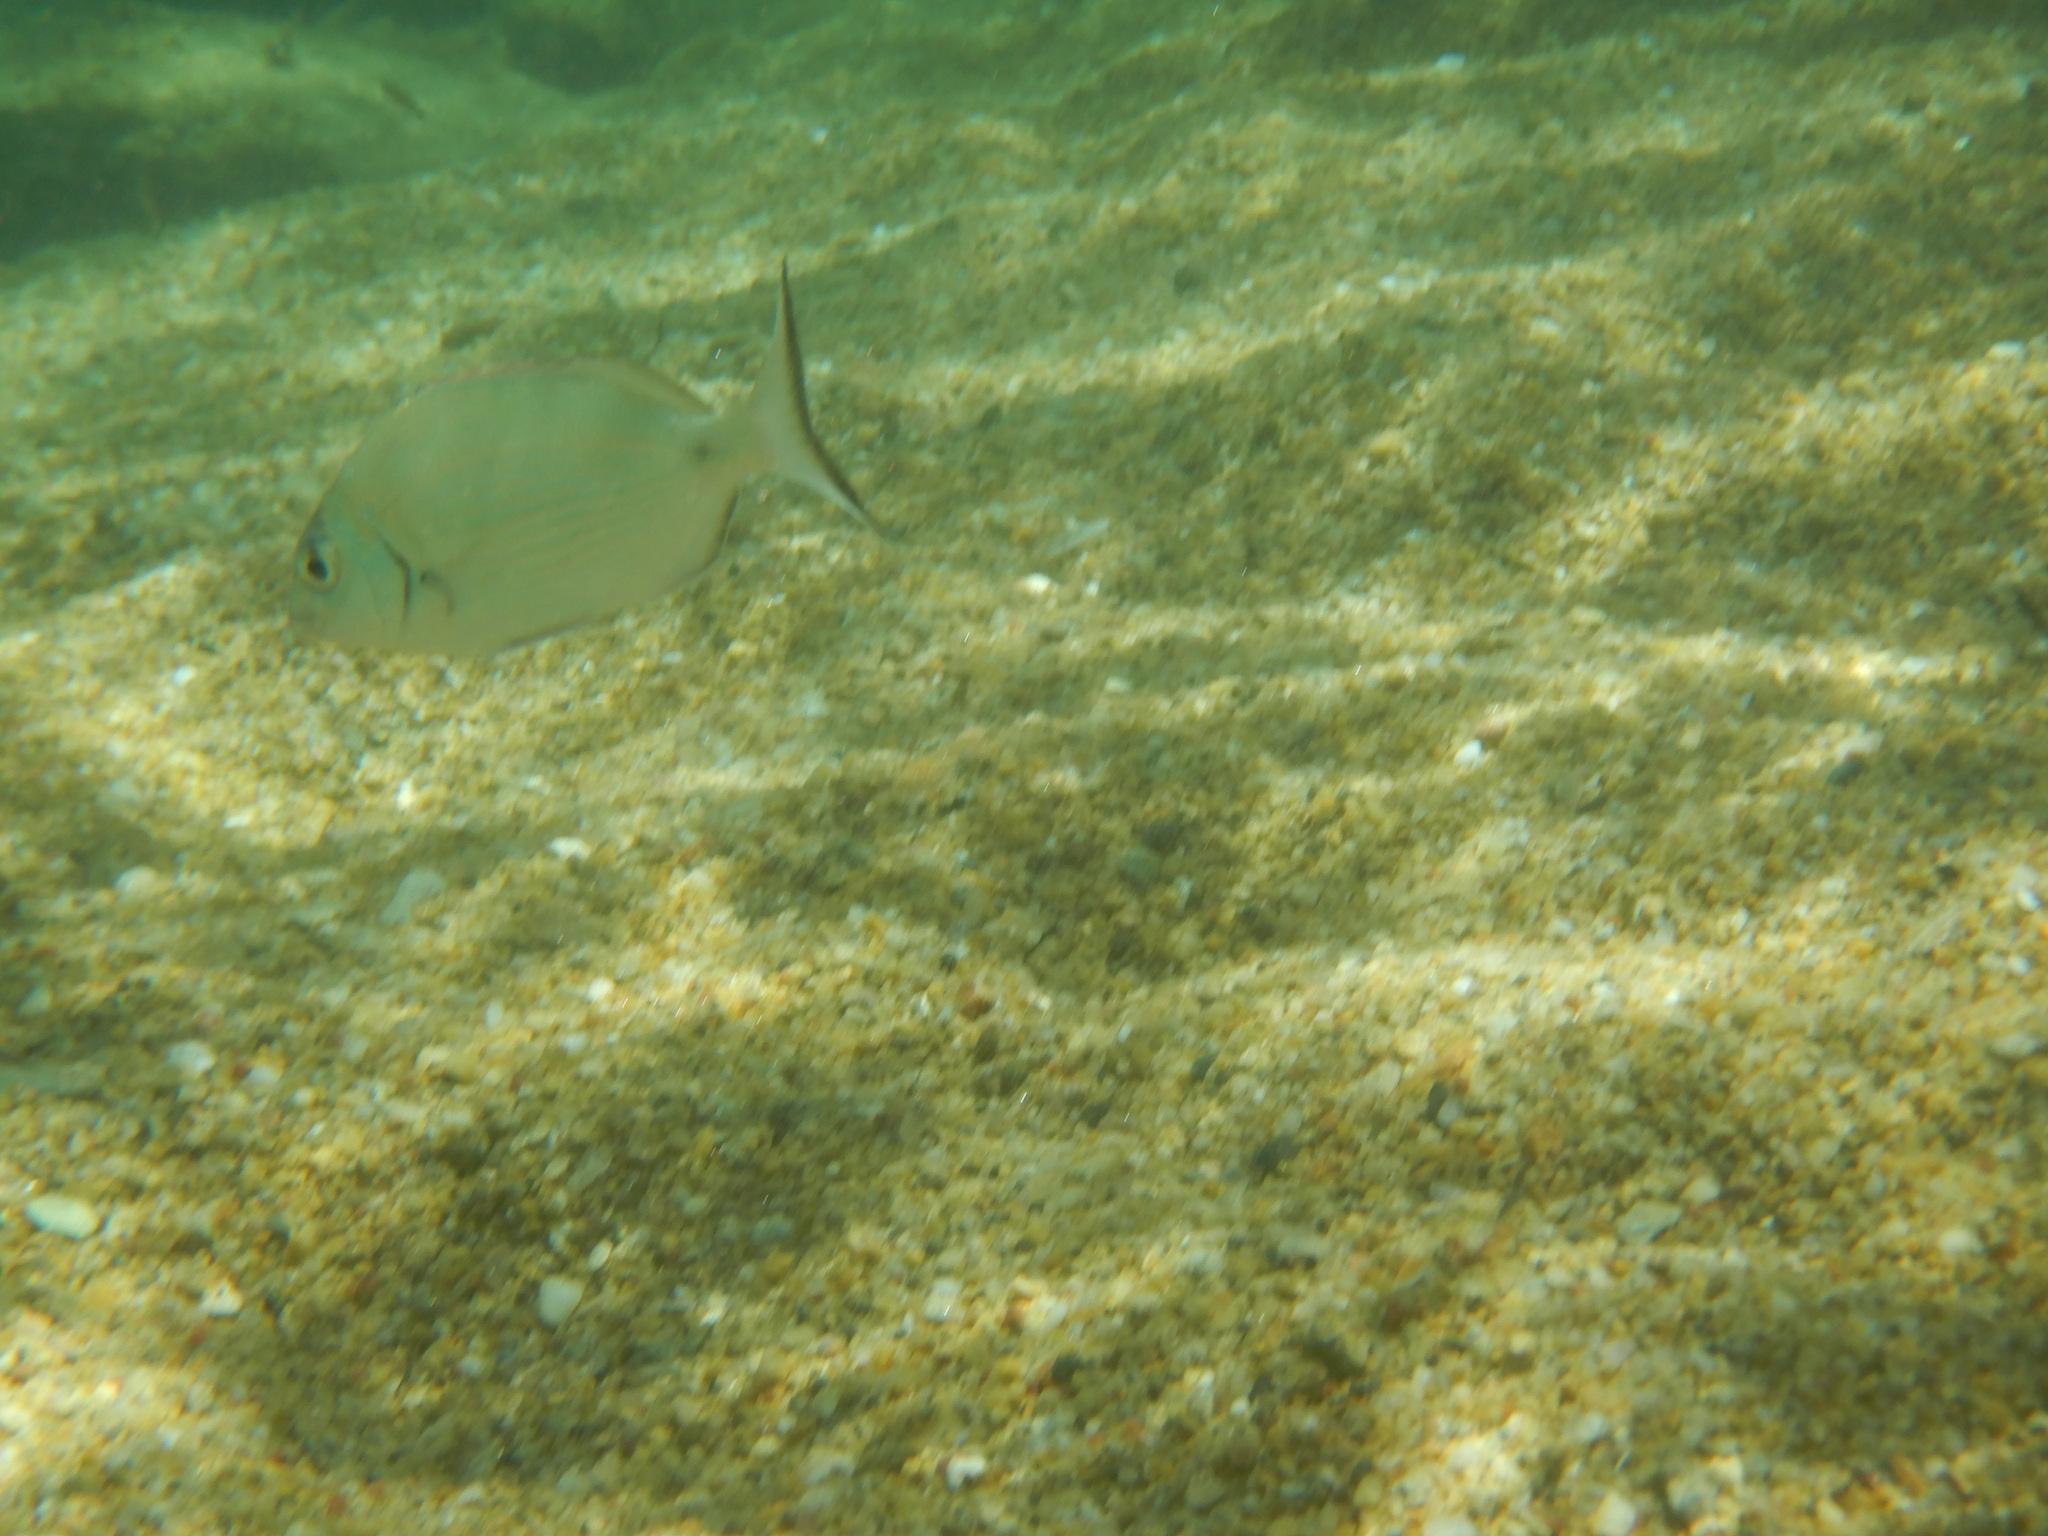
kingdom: Animalia
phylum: Chordata
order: Perciformes
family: Sparidae
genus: Diplodus
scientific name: Diplodus sargus
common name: White seabream
